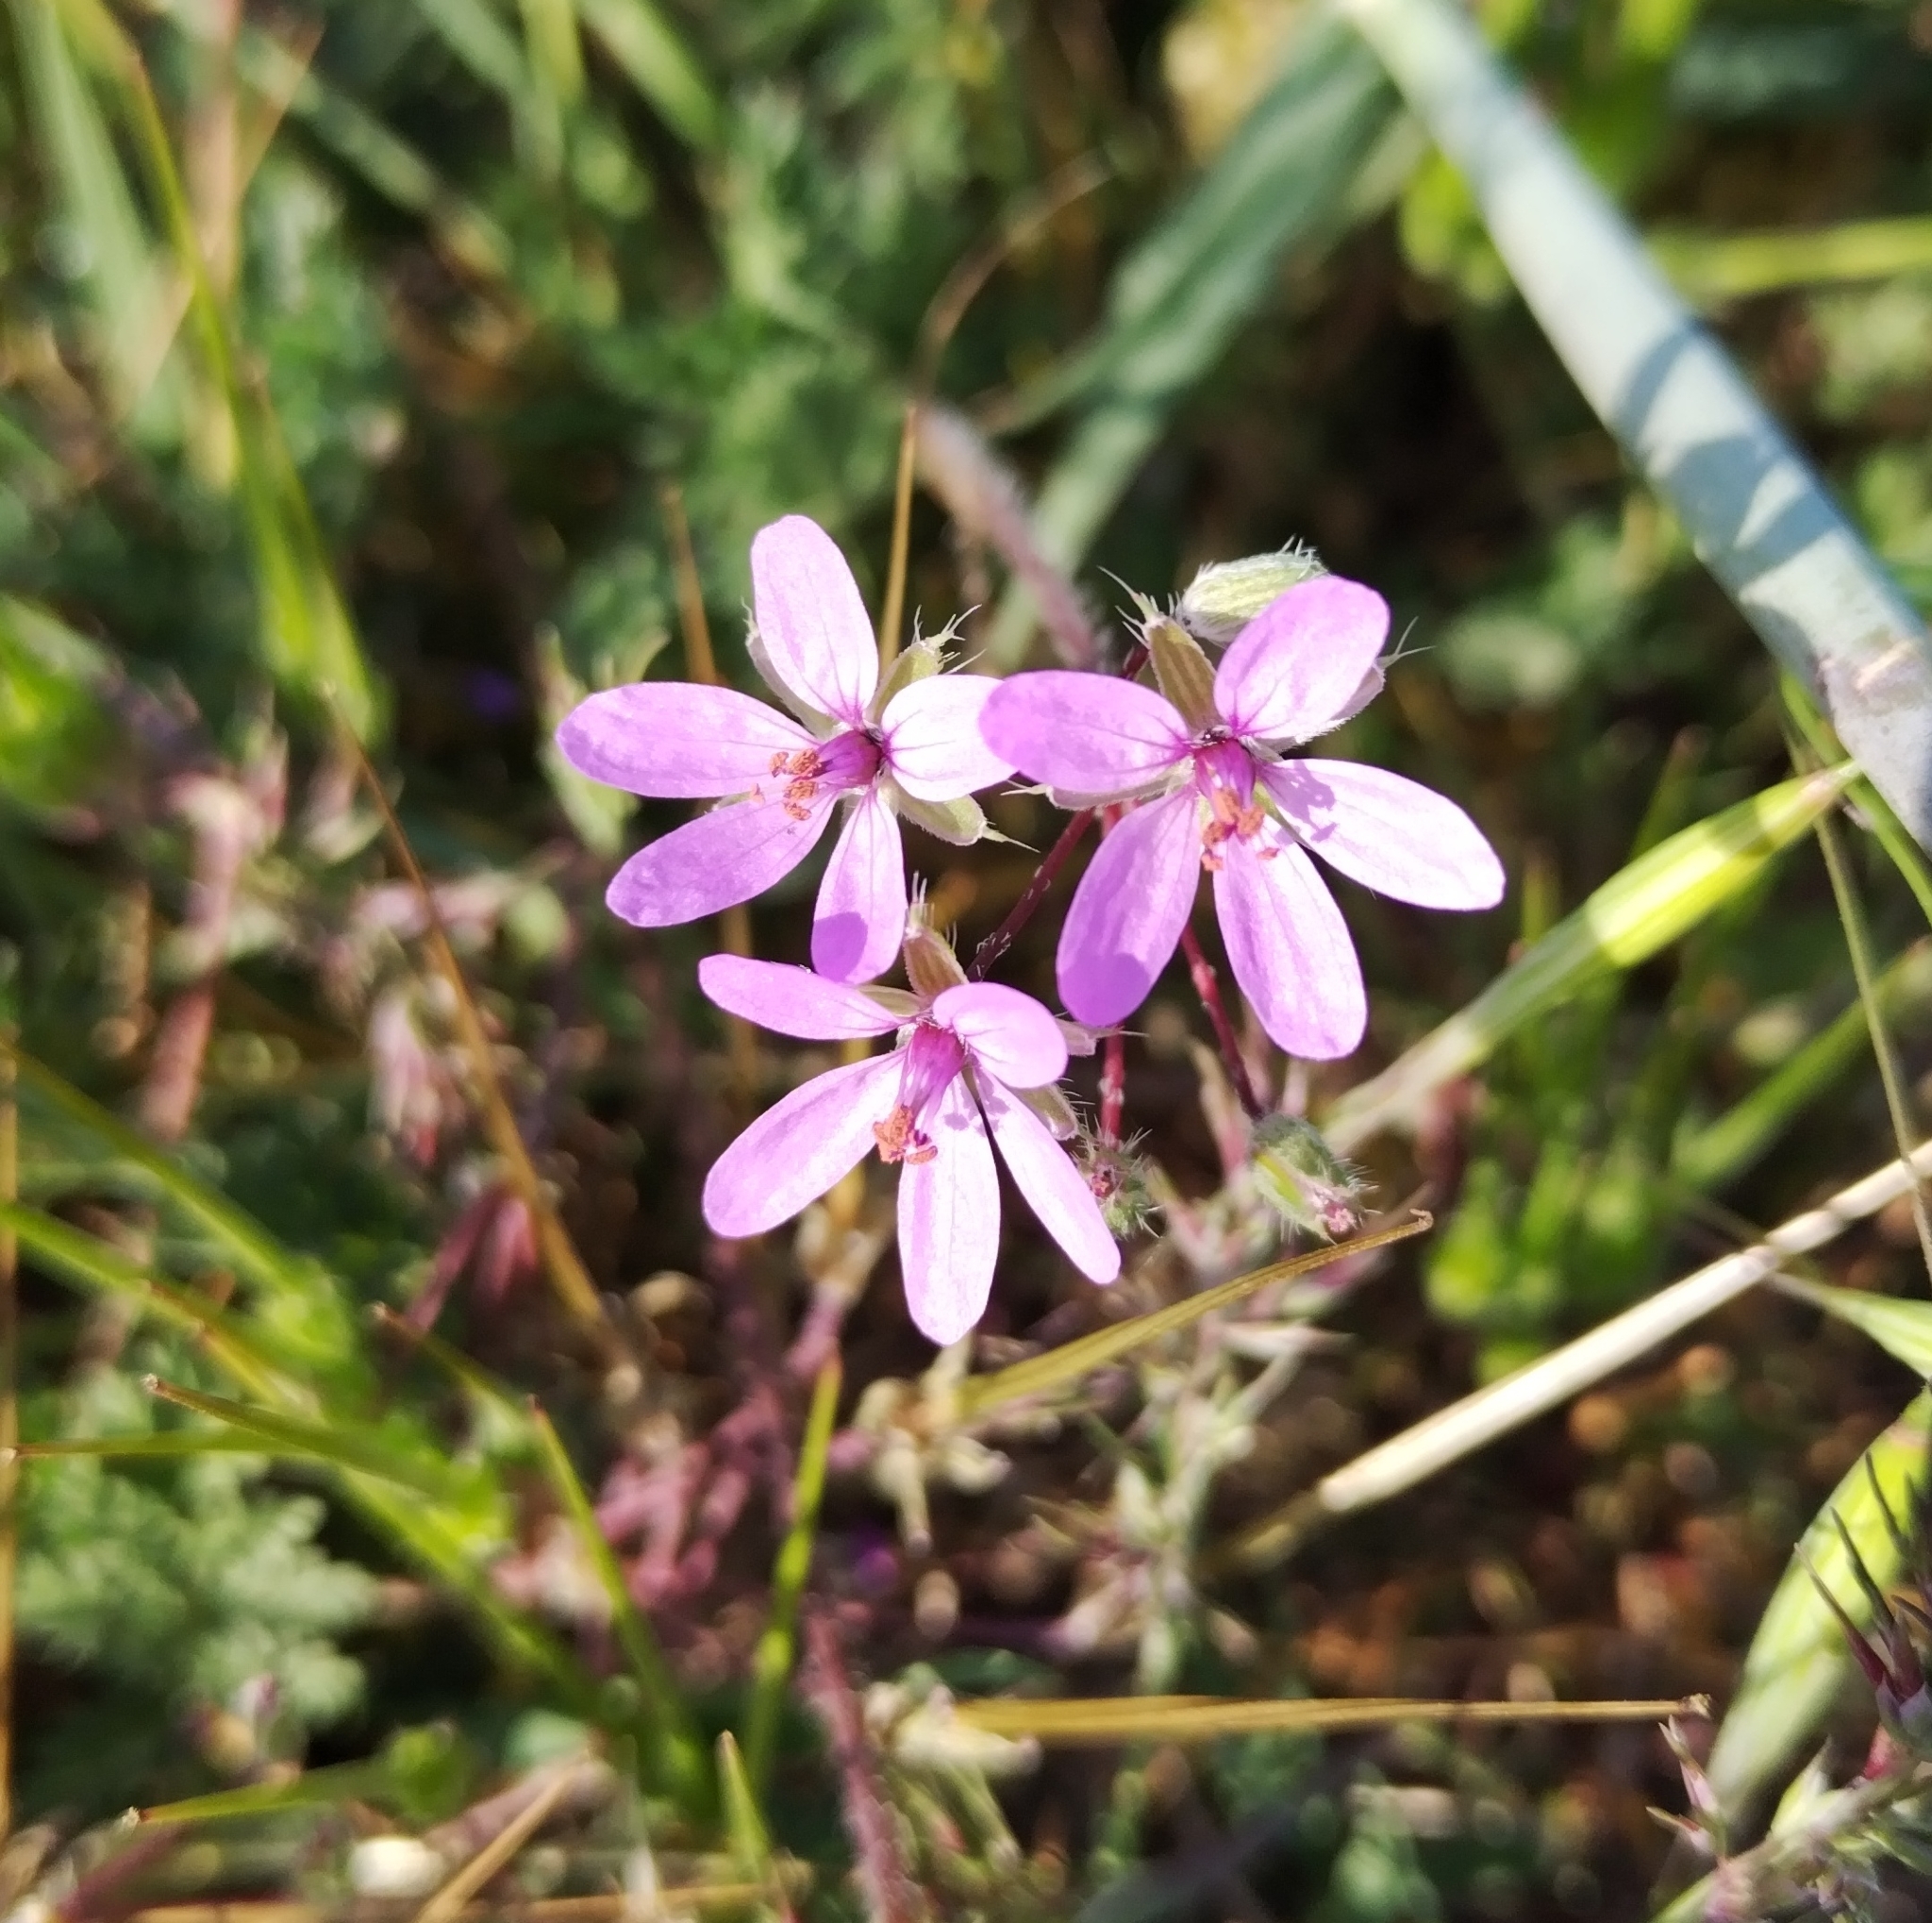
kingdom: Plantae
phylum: Tracheophyta
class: Magnoliopsida
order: Geraniales
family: Geraniaceae
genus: Erodium
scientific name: Erodium cicutarium
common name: Common stork's-bill
